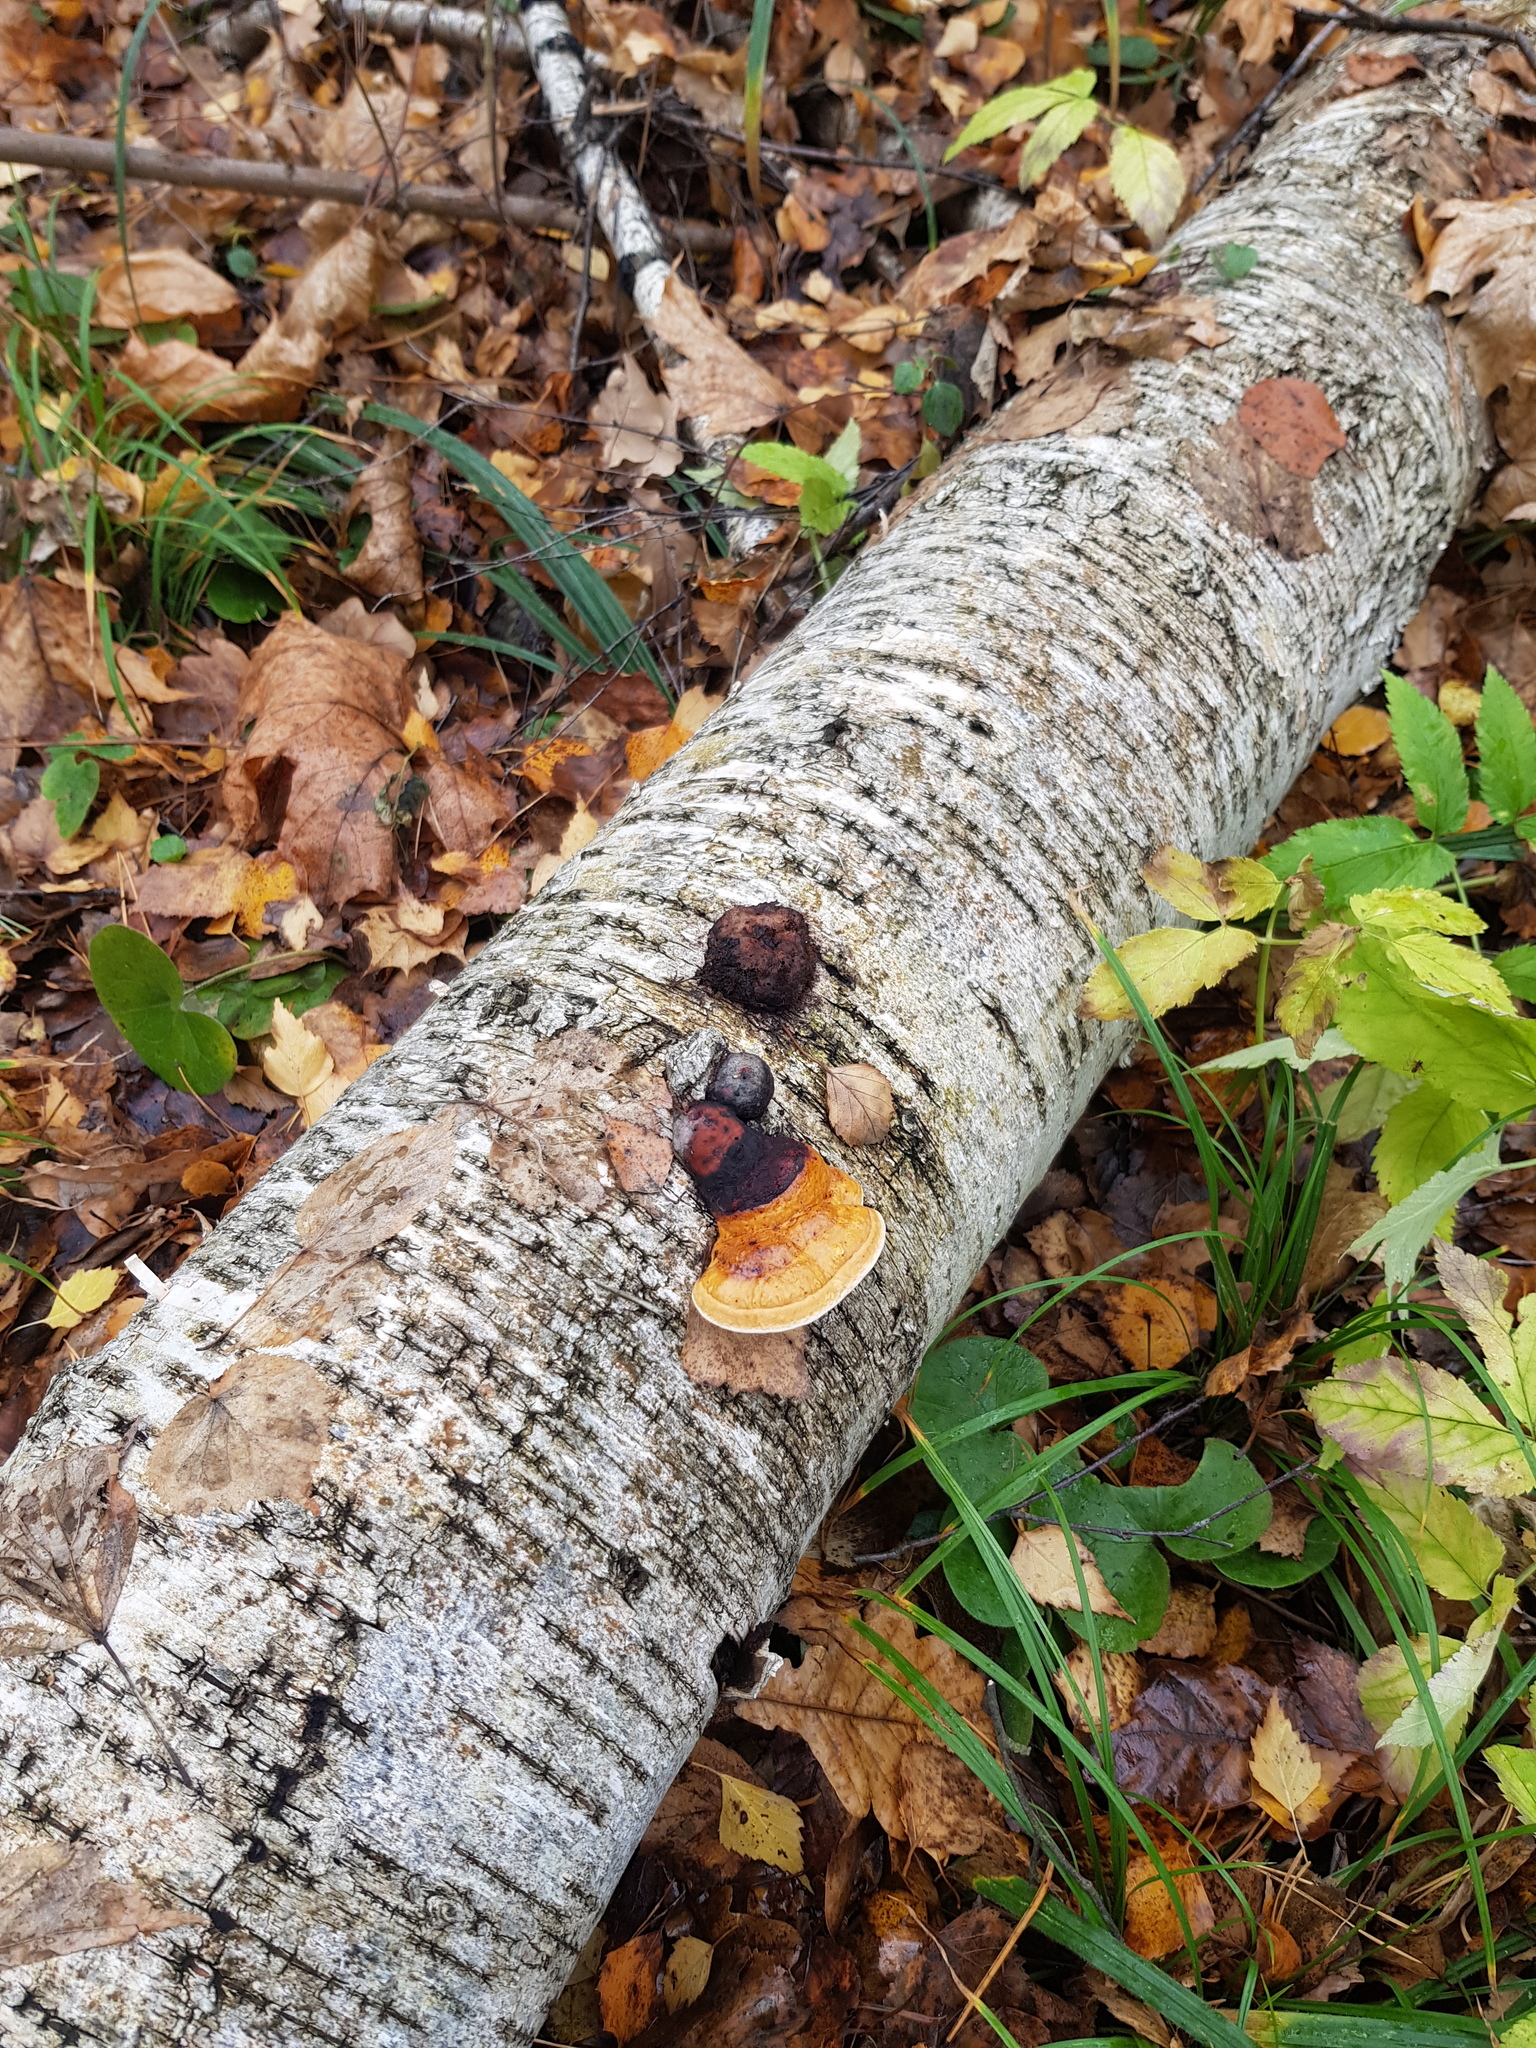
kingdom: Fungi
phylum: Basidiomycota
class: Agaricomycetes
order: Polyporales
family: Fomitopsidaceae
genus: Fomitopsis
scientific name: Fomitopsis pinicola
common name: Red-belted bracket
